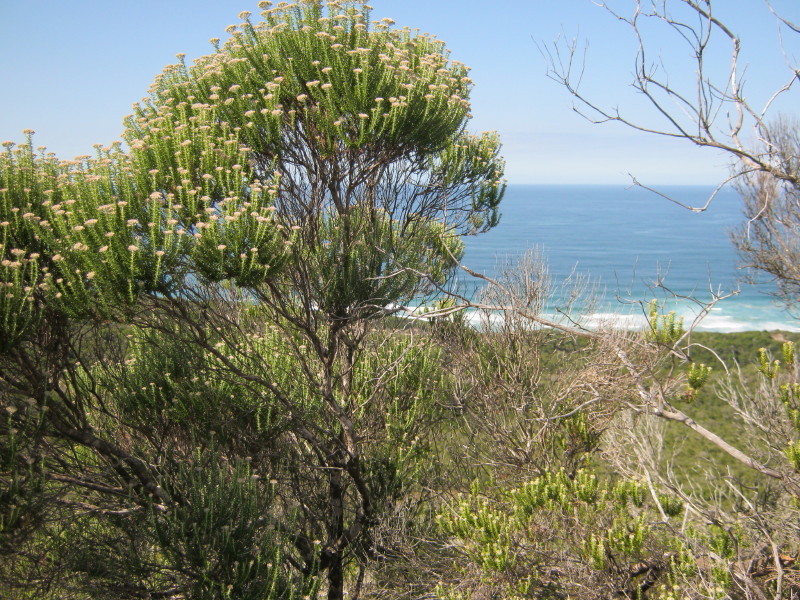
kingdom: Plantae
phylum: Tracheophyta
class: Magnoliopsida
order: Asterales
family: Asteraceae
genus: Metalasia
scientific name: Metalasia muricata
